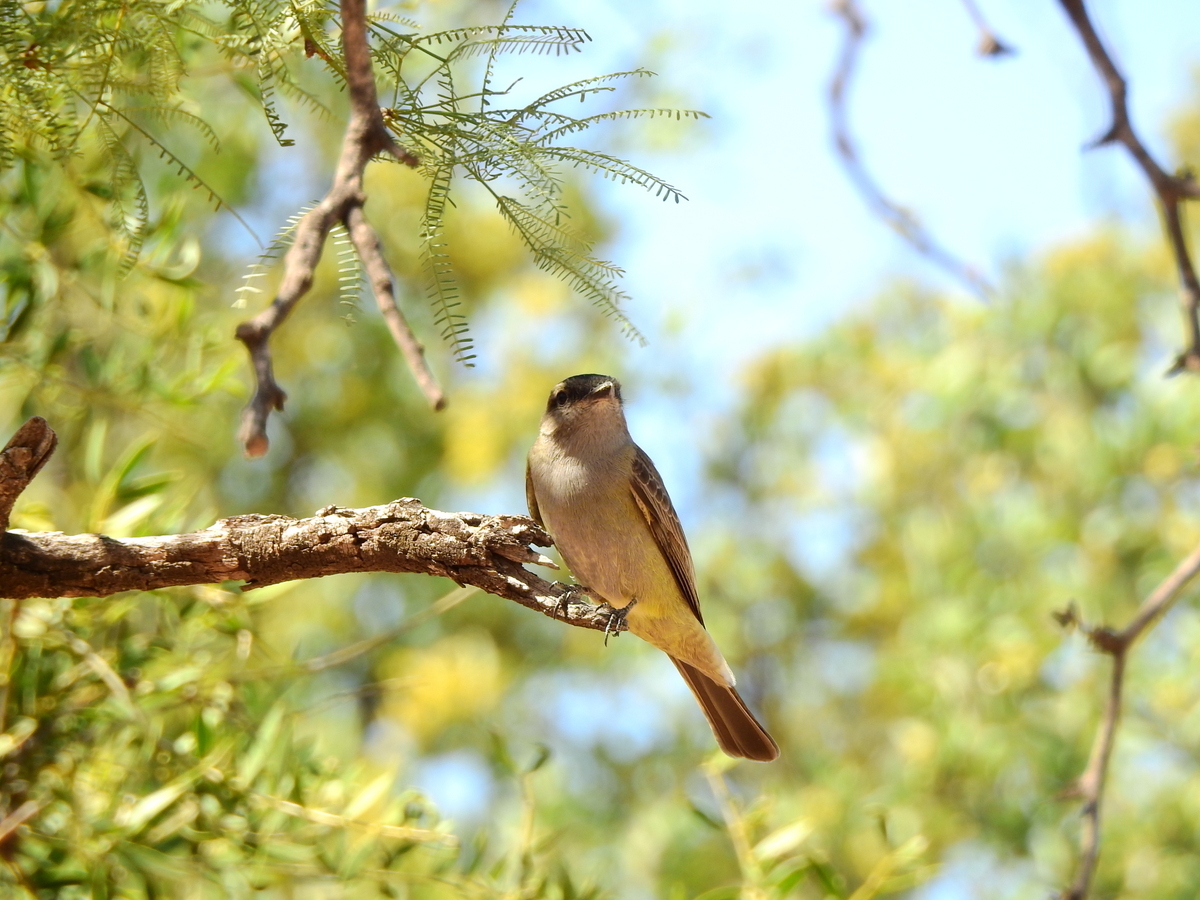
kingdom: Animalia
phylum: Chordata
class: Aves
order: Passeriformes
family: Tyrannidae
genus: Empidonomus
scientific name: Empidonomus aurantioatrocristatus
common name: Crowned slaty flycatcher
